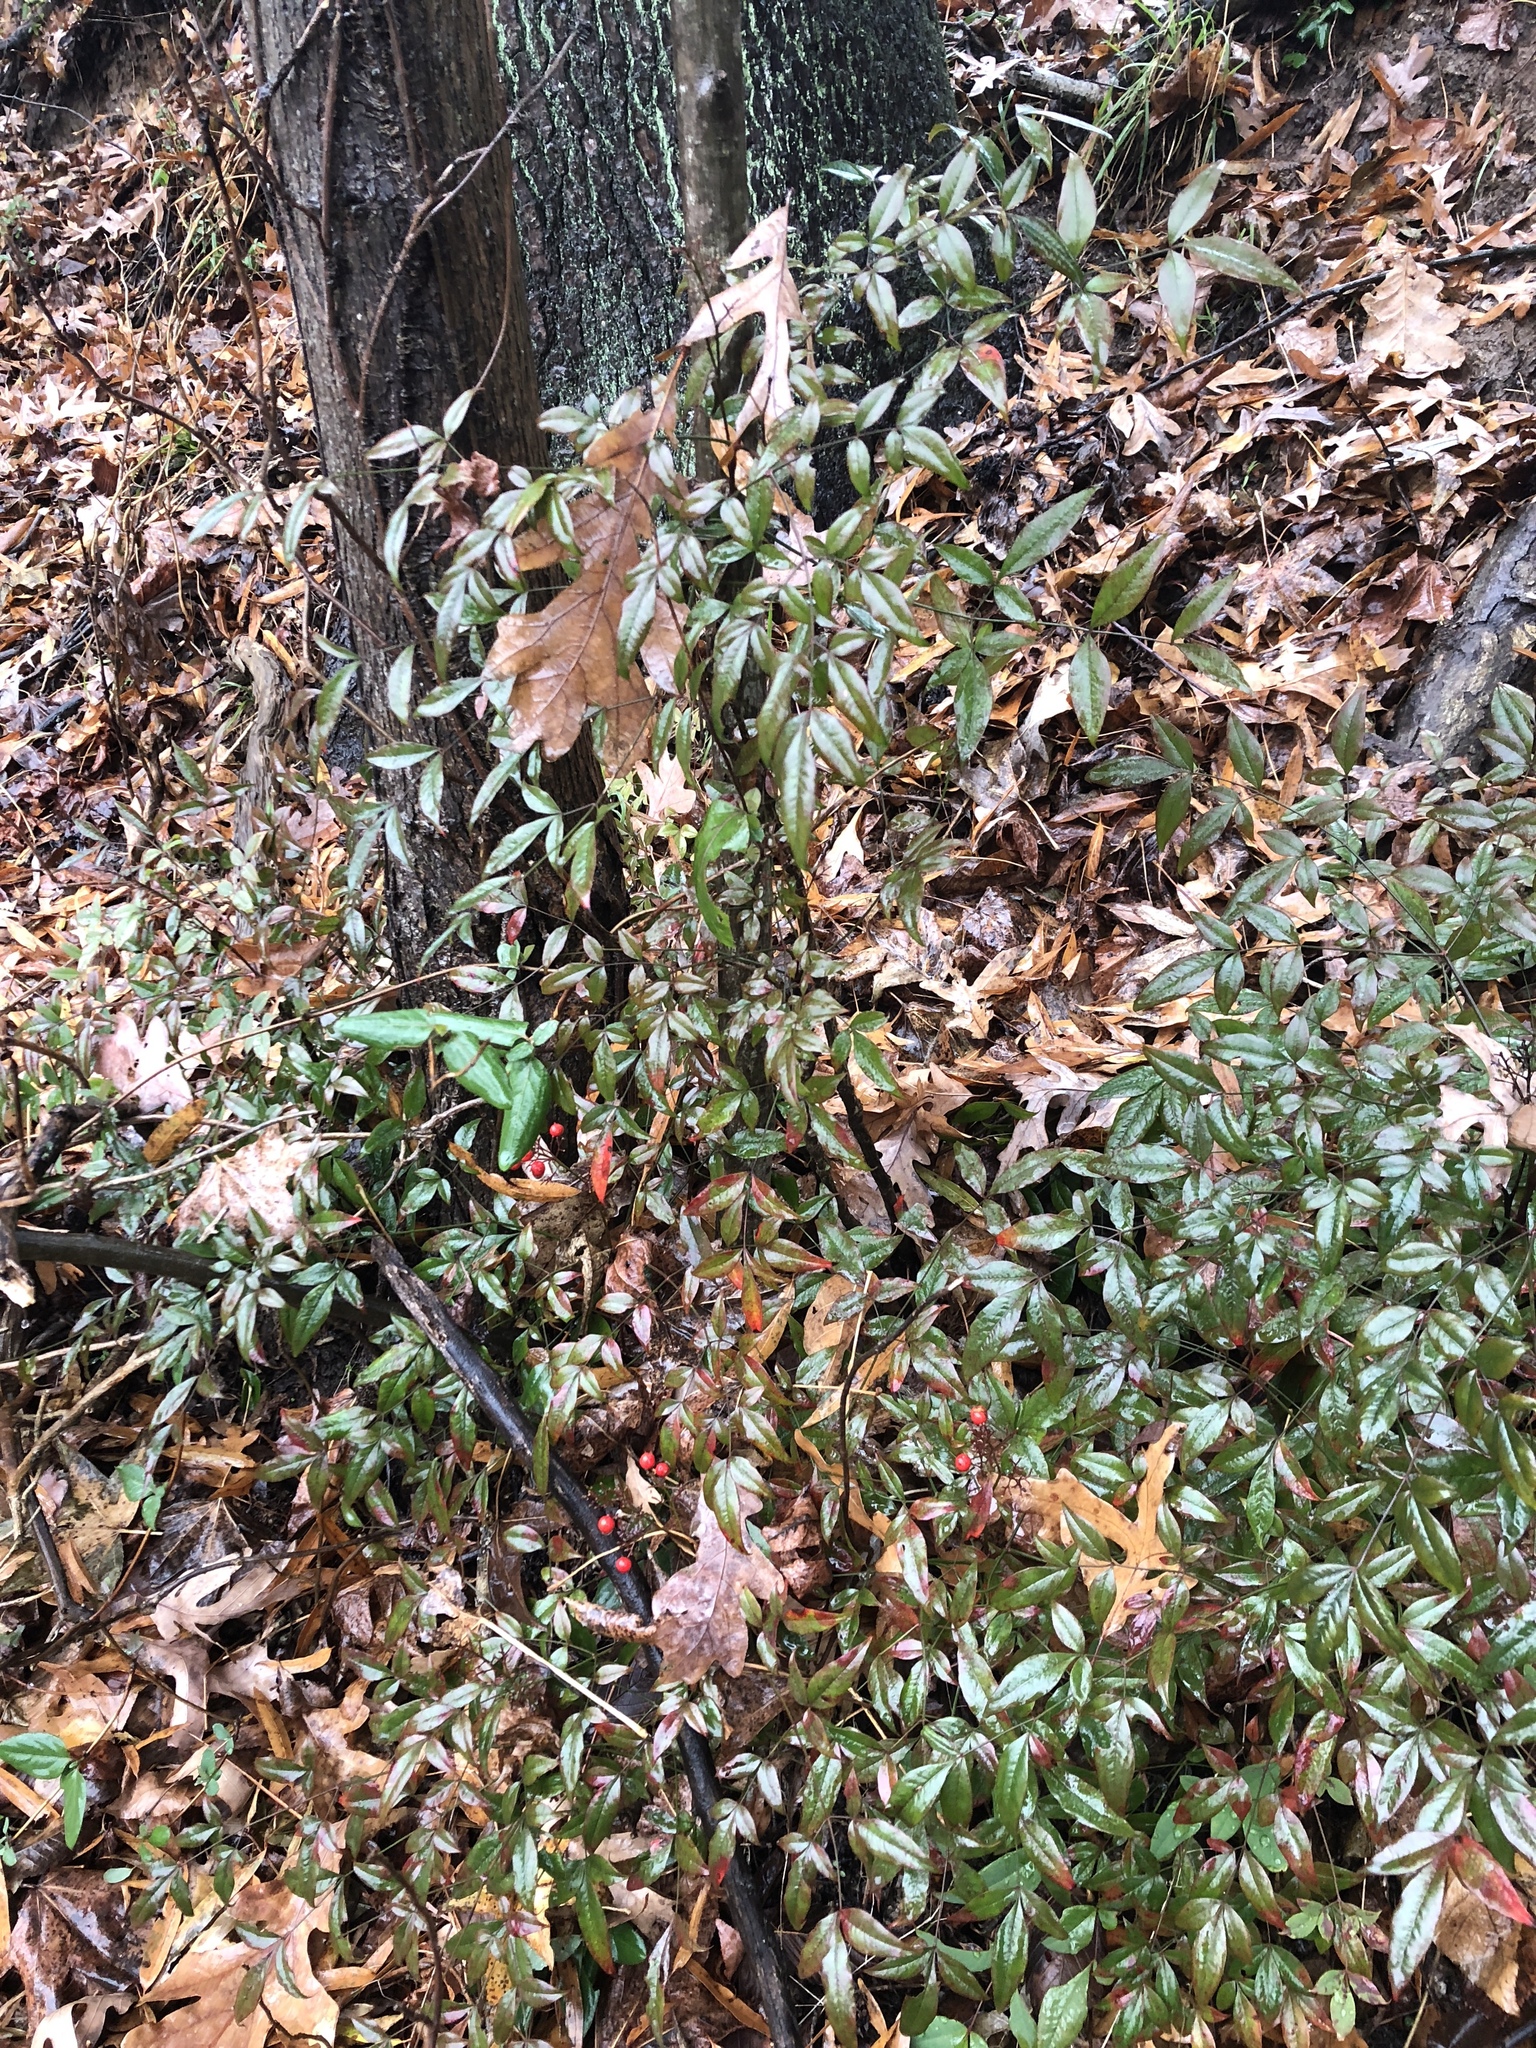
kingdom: Plantae
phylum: Tracheophyta
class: Magnoliopsida
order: Ranunculales
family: Berberidaceae
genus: Nandina
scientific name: Nandina domestica
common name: Sacred bamboo
